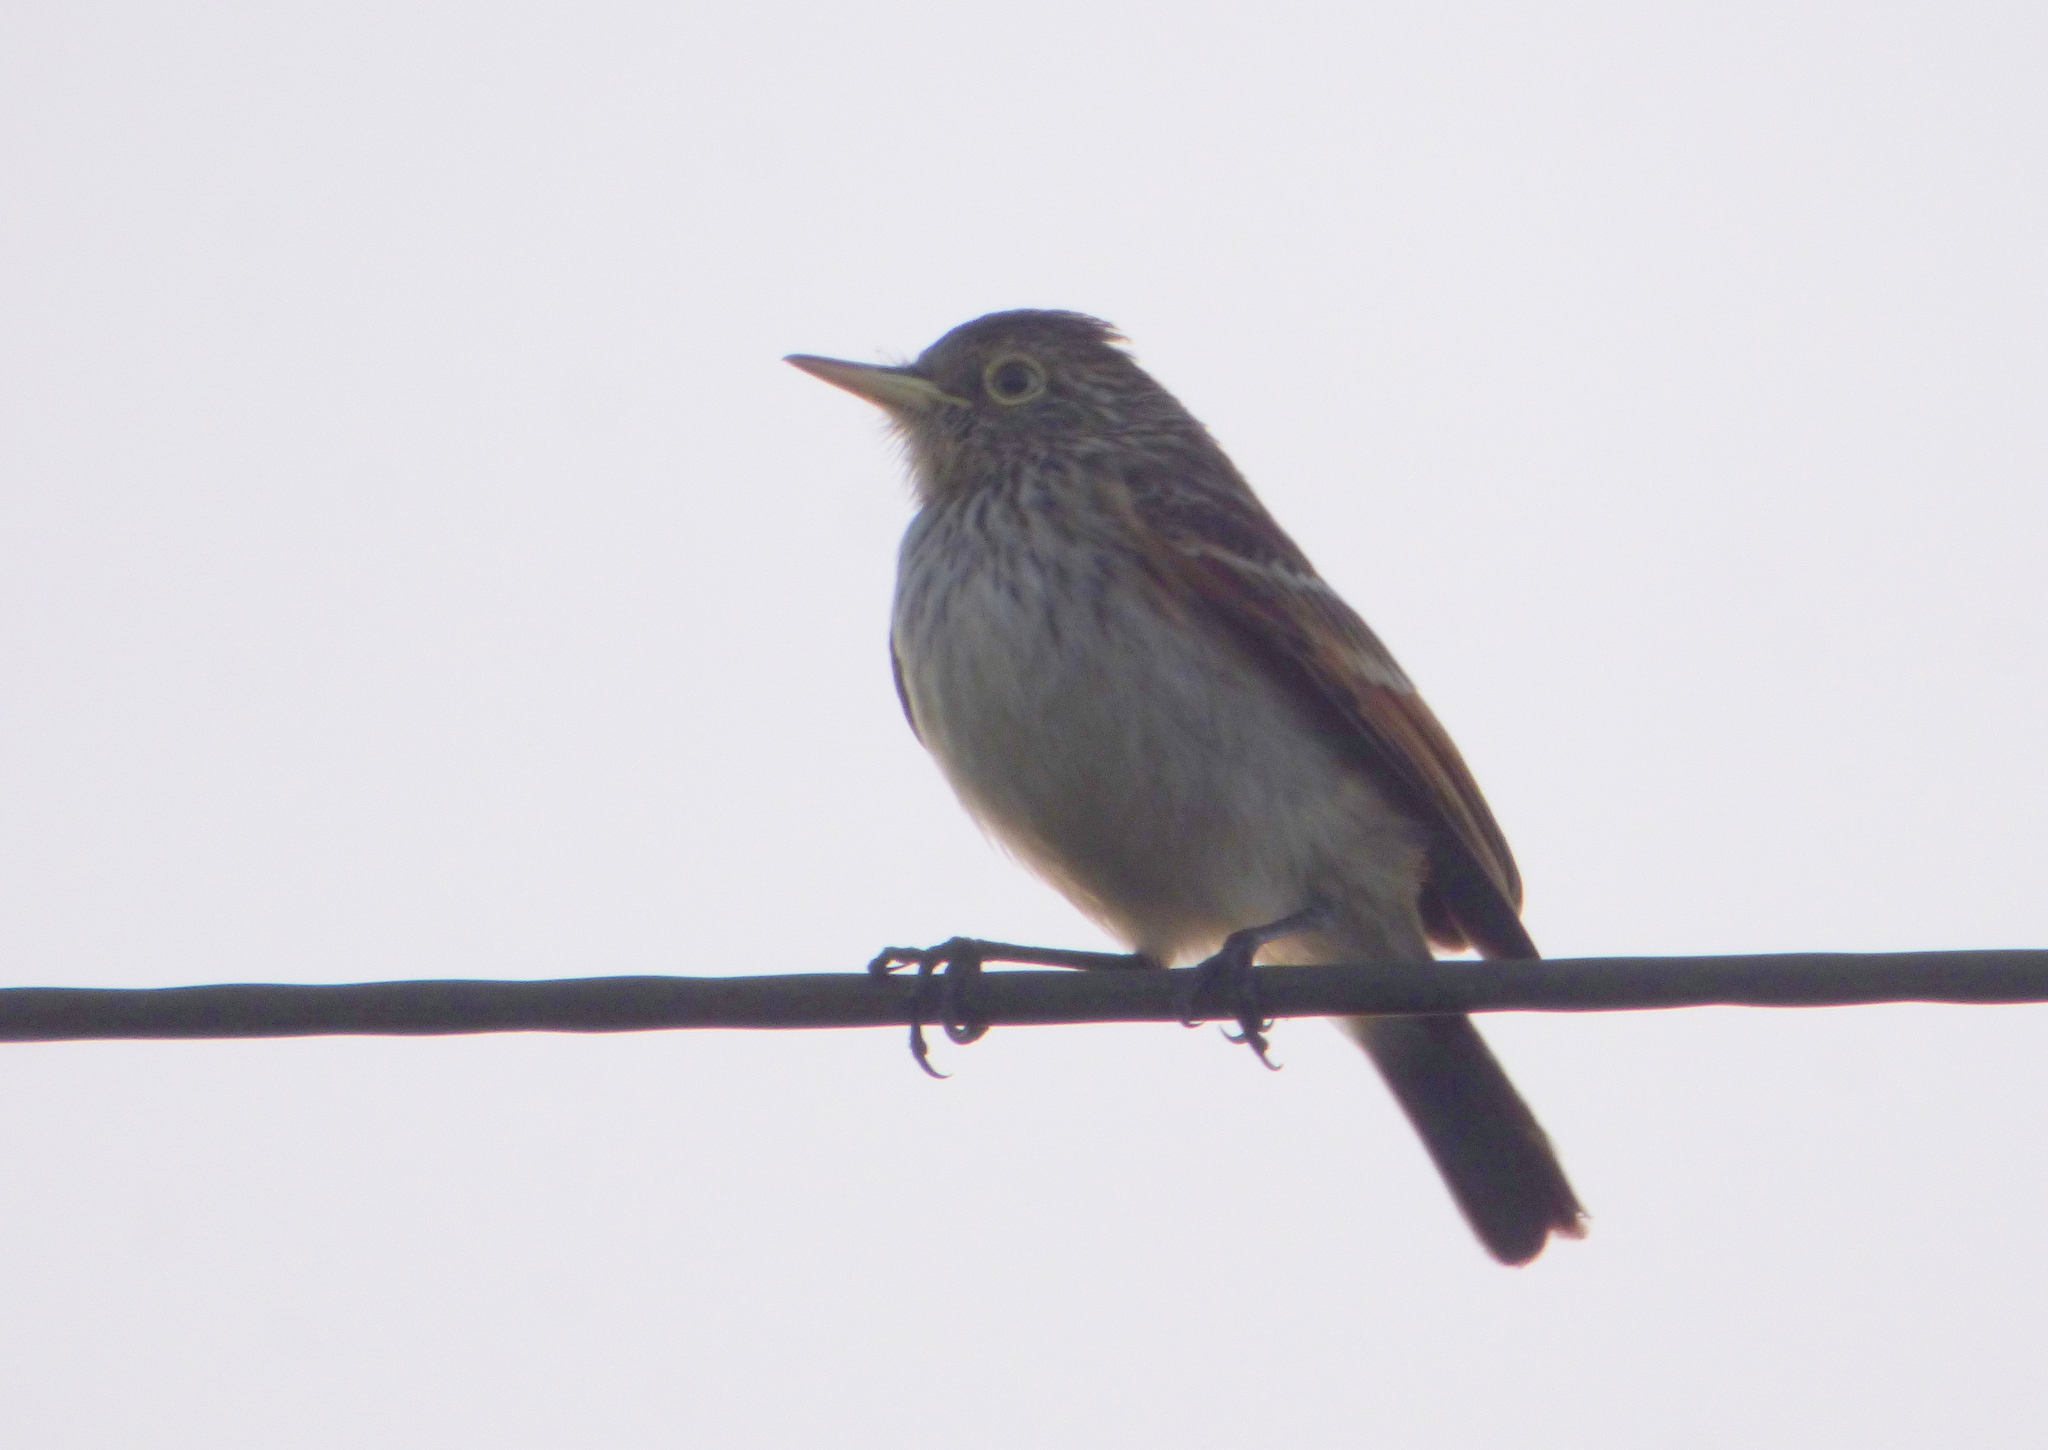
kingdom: Animalia
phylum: Chordata
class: Aves
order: Passeriformes
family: Tyrannidae
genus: Hymenops
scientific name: Hymenops perspicillatus
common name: Spectacled tyrant
